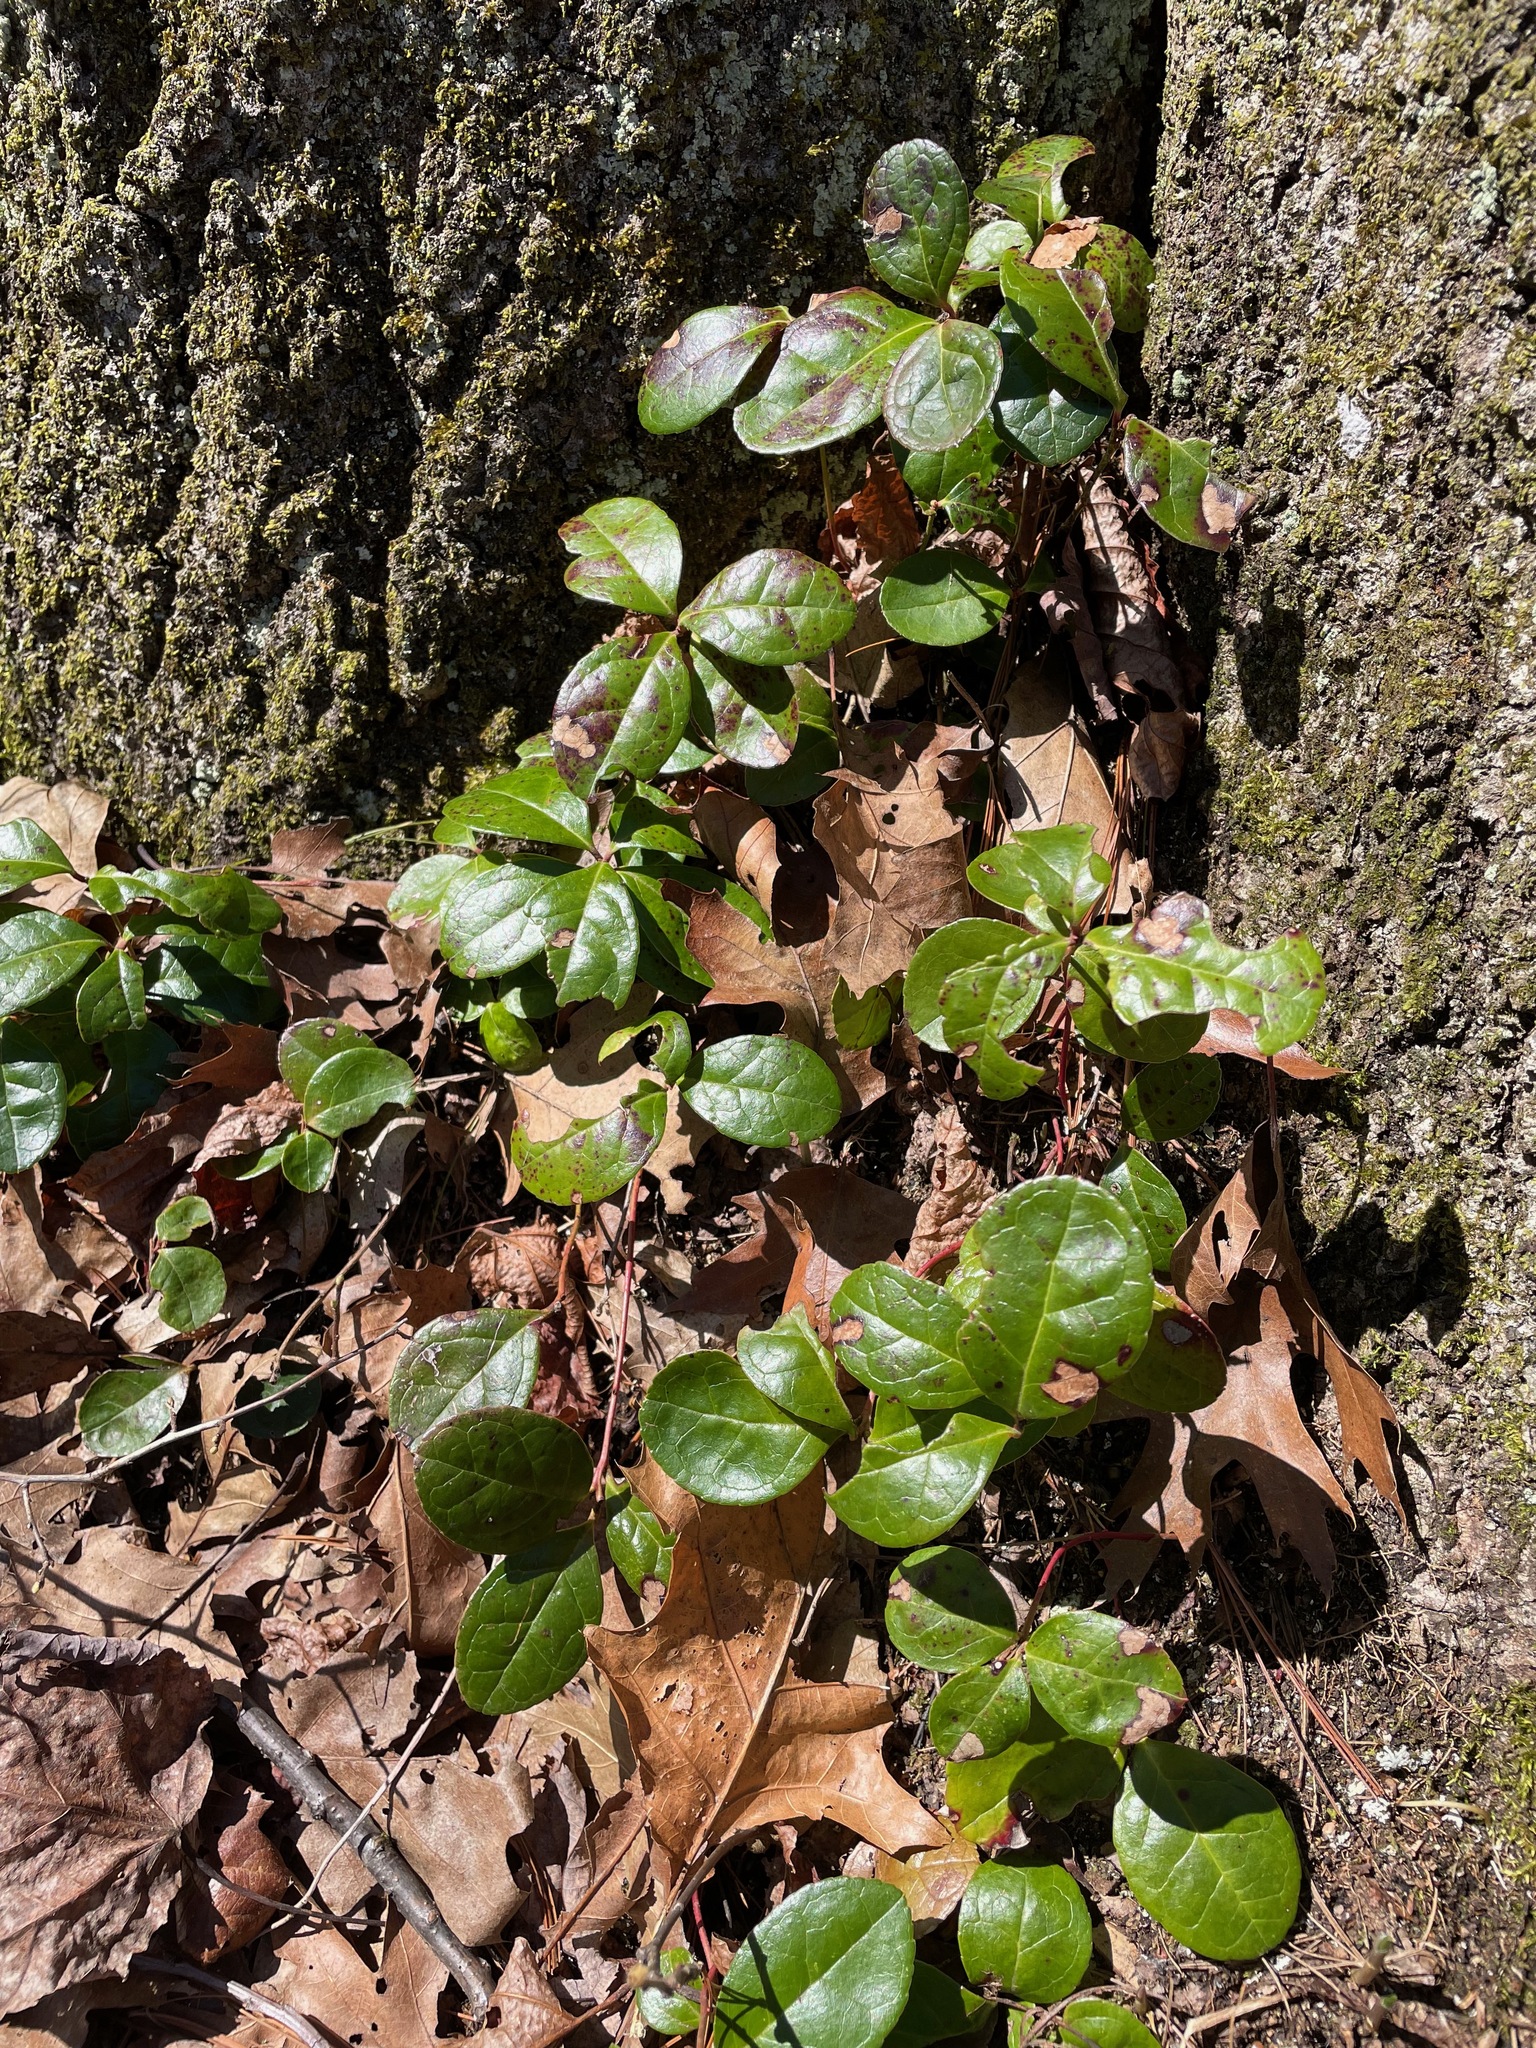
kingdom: Plantae
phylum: Tracheophyta
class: Magnoliopsida
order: Ericales
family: Ericaceae
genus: Gaultheria
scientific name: Gaultheria procumbens
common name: Checkerberry
